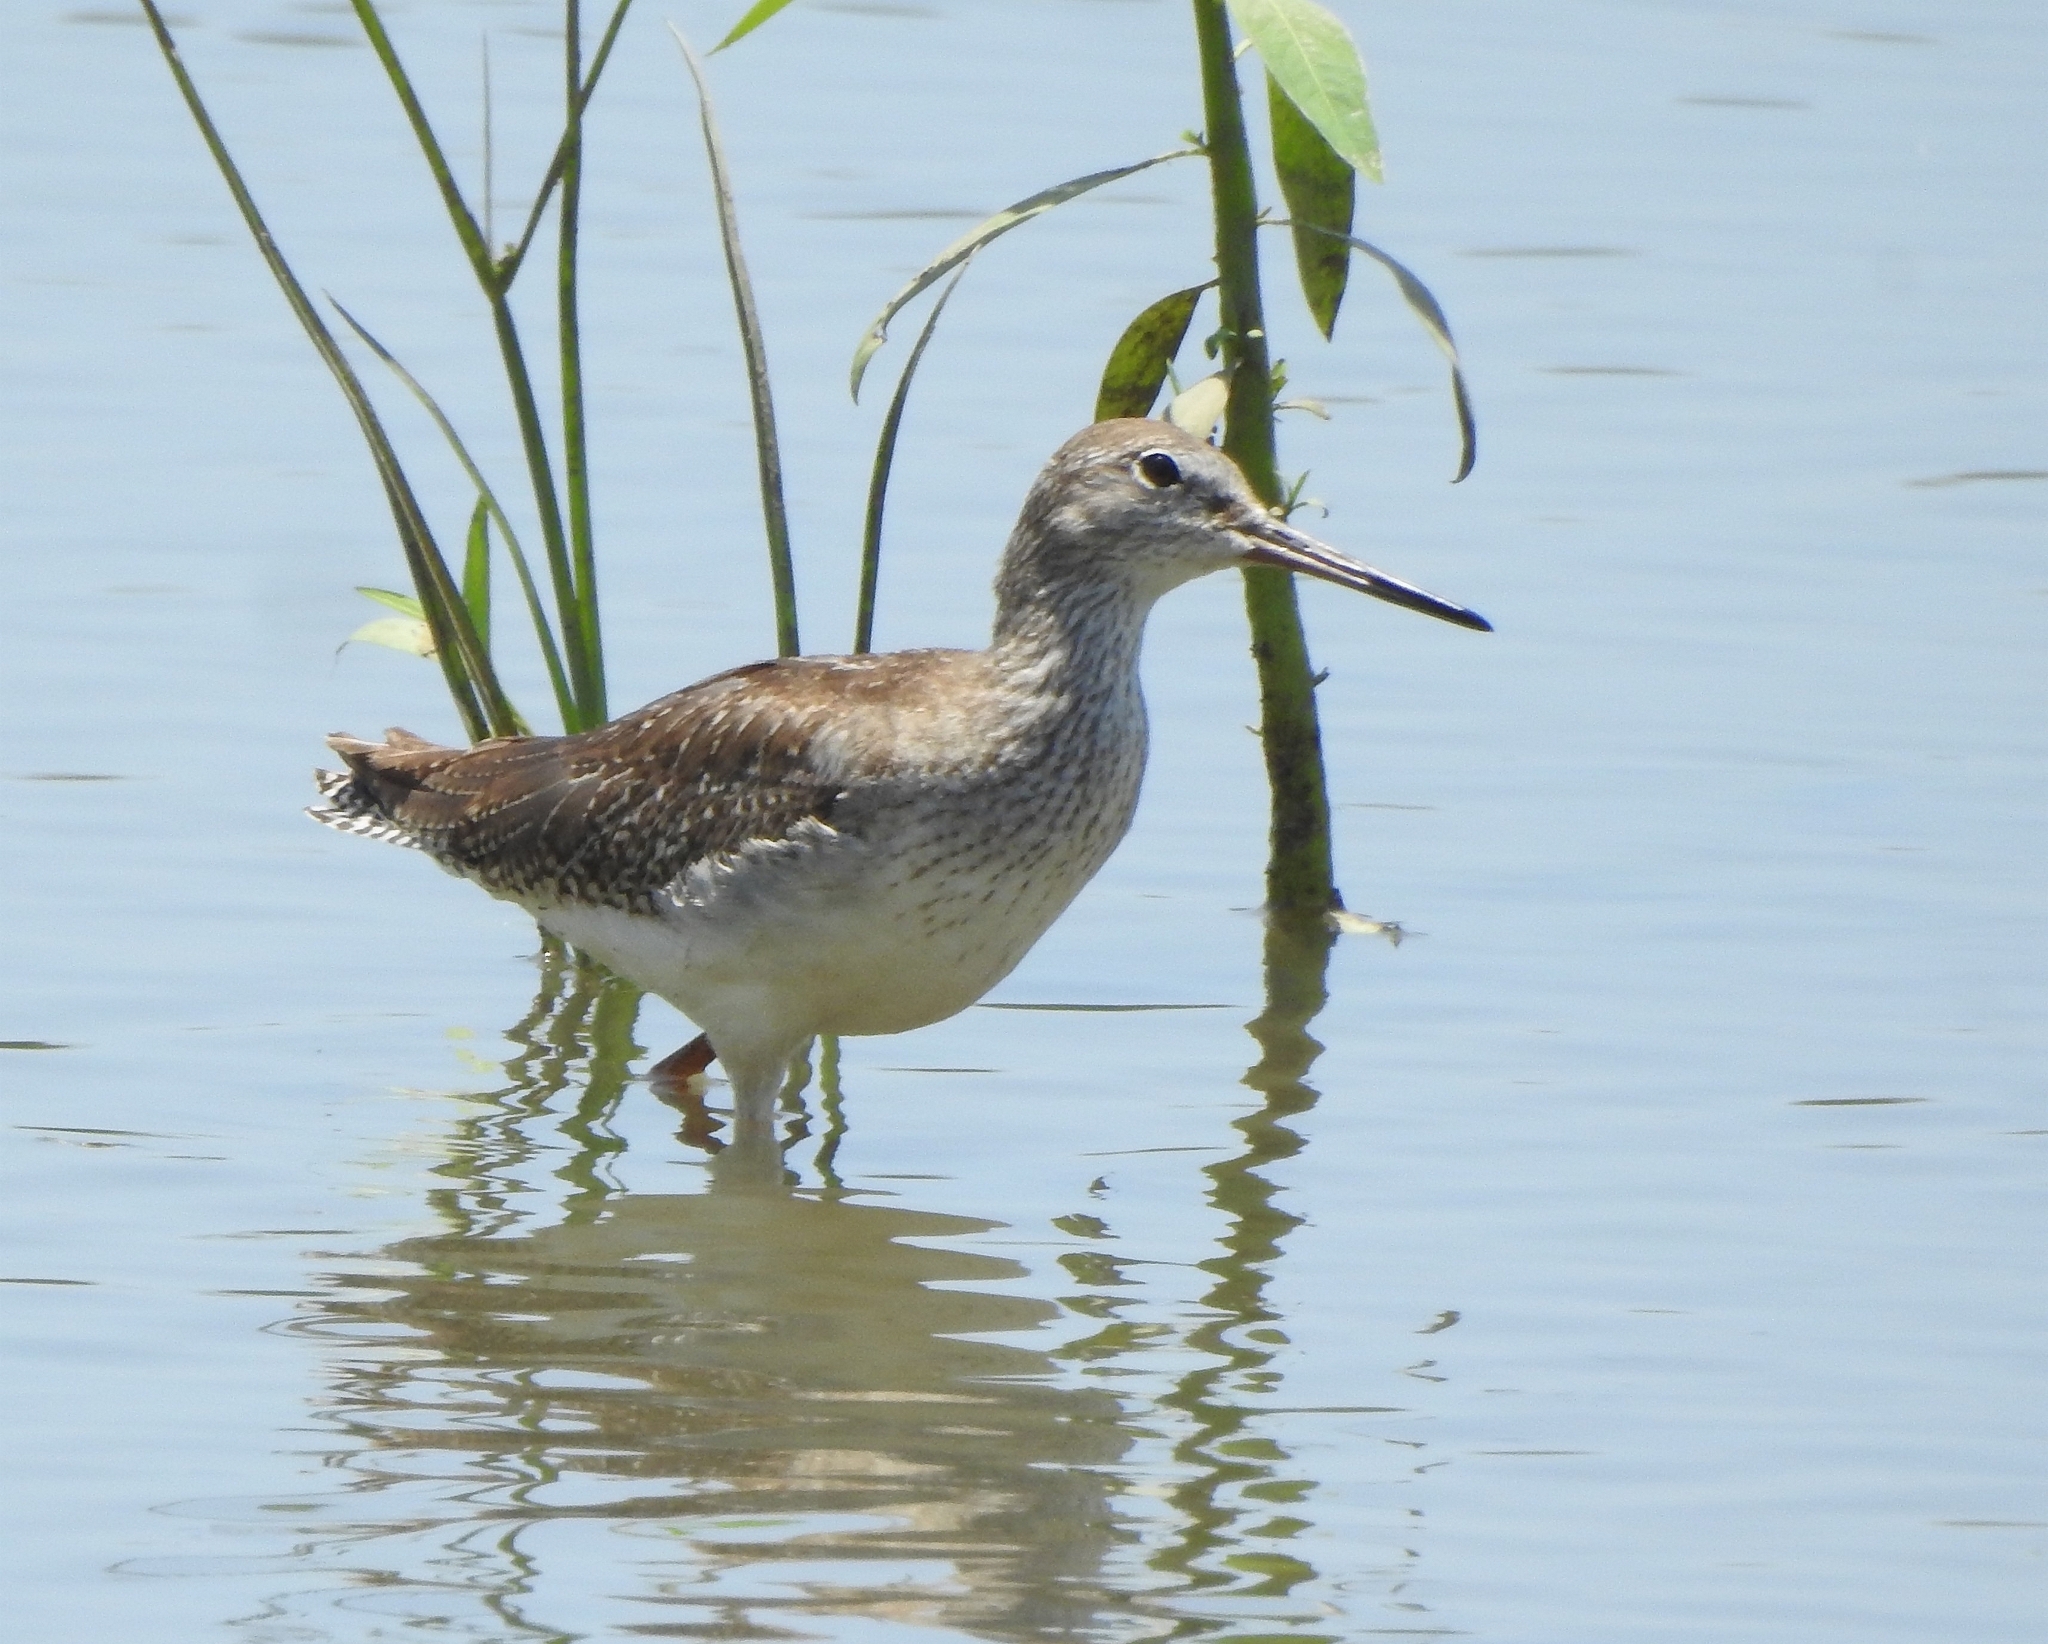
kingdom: Animalia
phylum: Chordata
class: Aves
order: Charadriiformes
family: Scolopacidae
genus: Tringa
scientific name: Tringa totanus
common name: Common redshank
